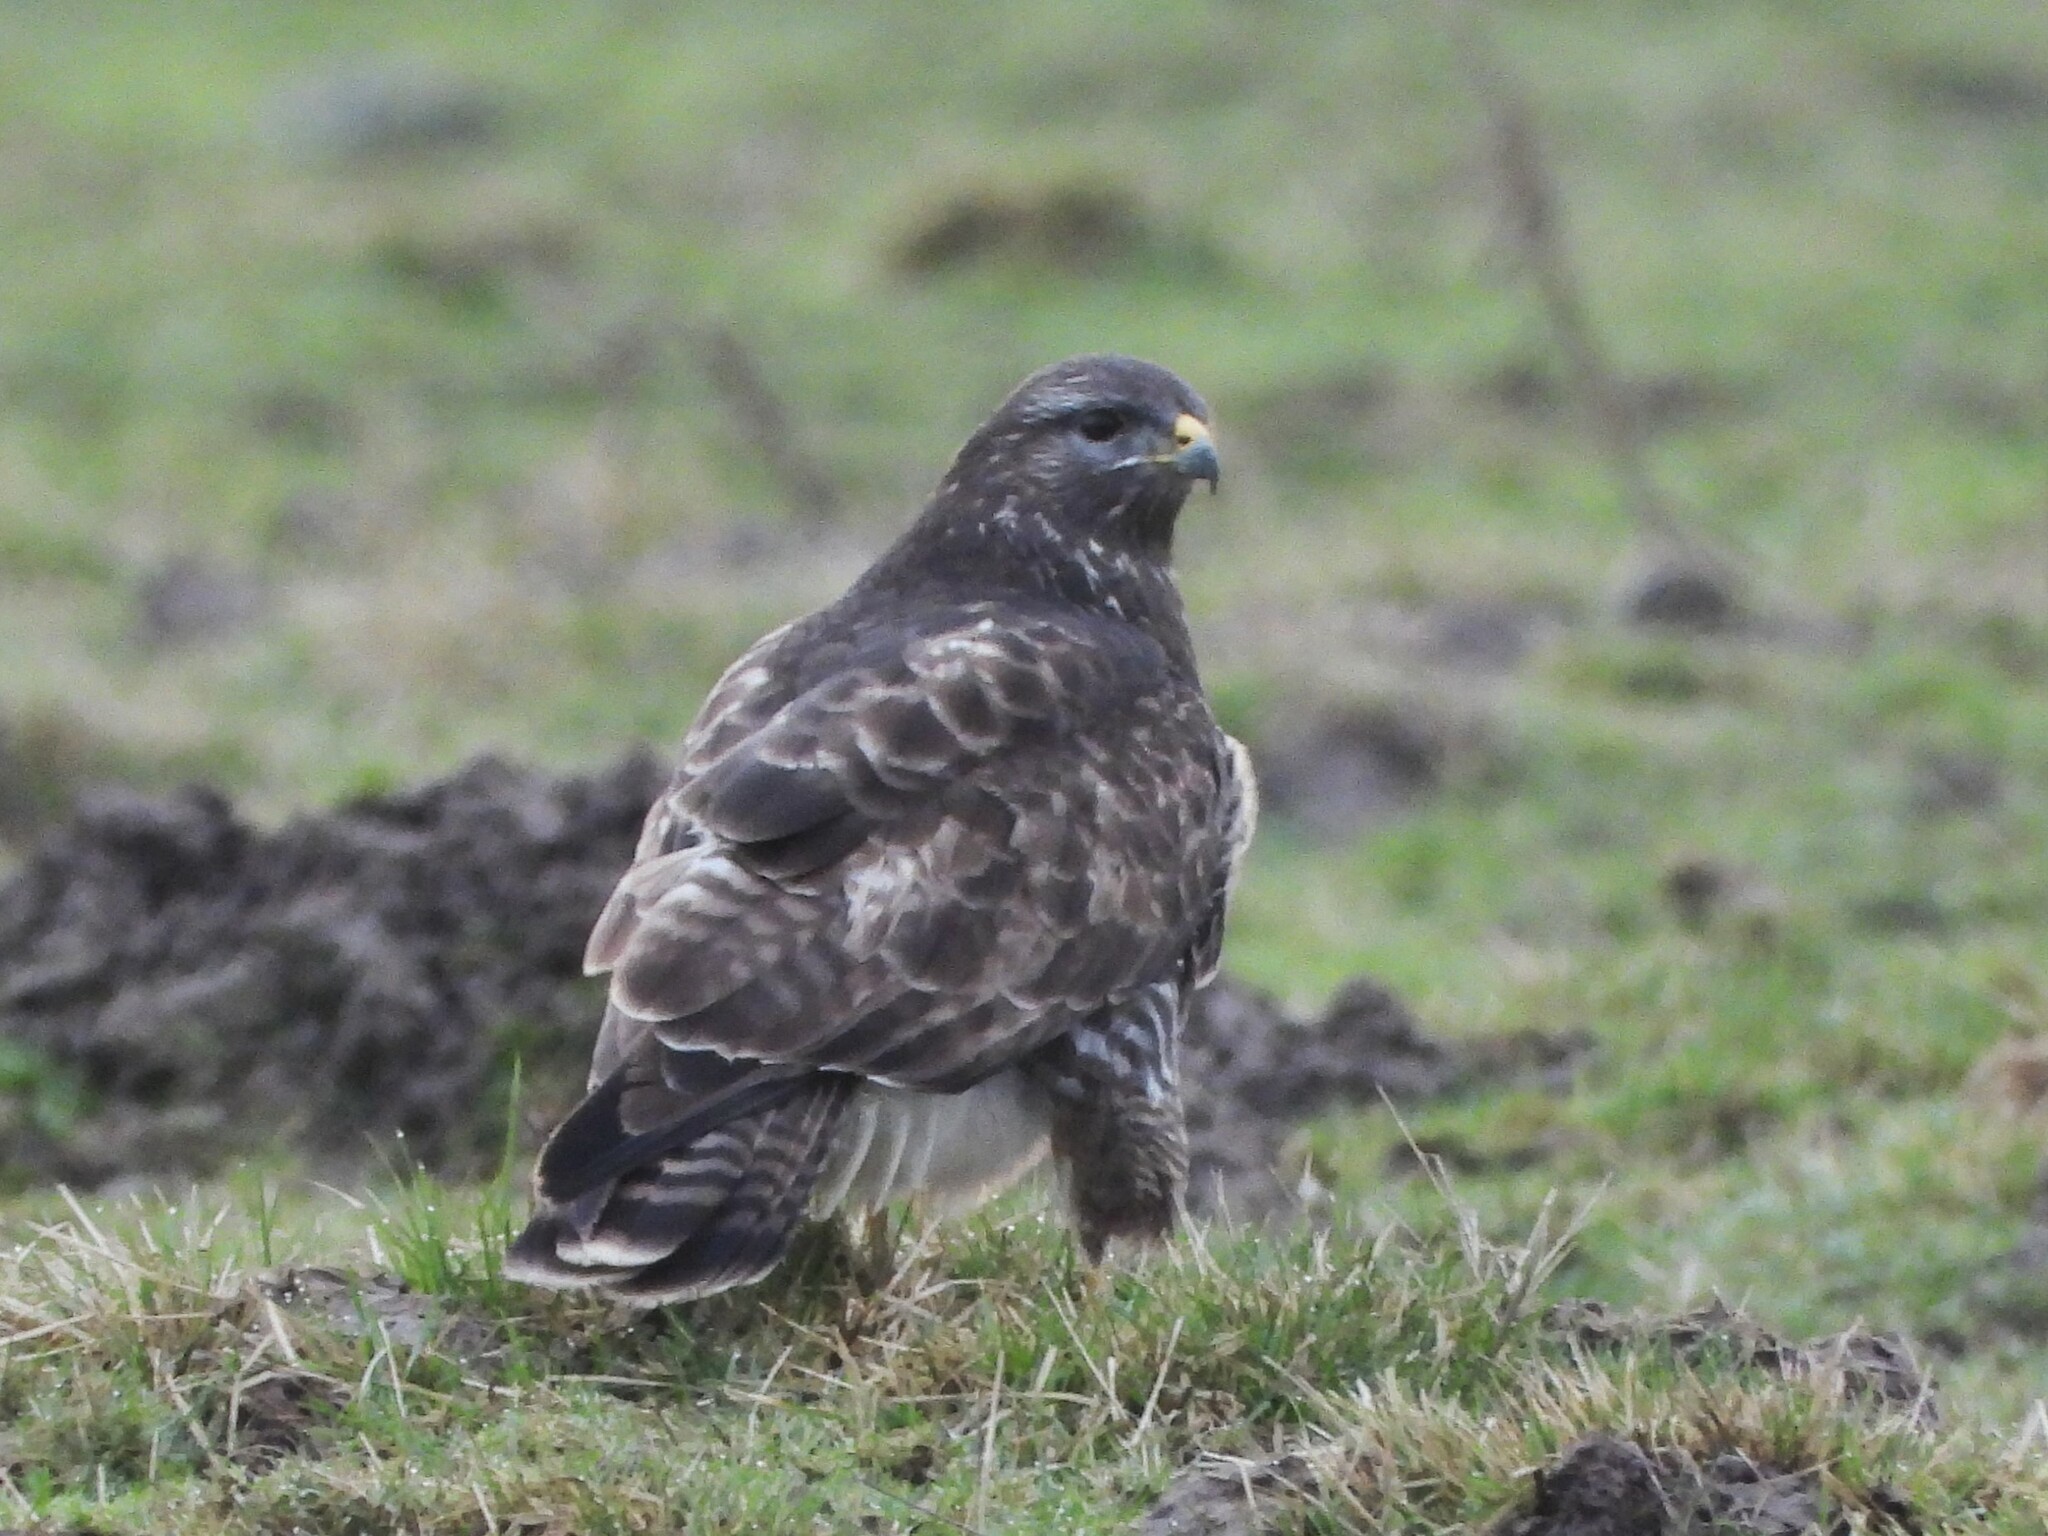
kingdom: Animalia
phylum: Chordata
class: Aves
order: Accipitriformes
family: Accipitridae
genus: Buteo
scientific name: Buteo buteo
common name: Common buzzard
